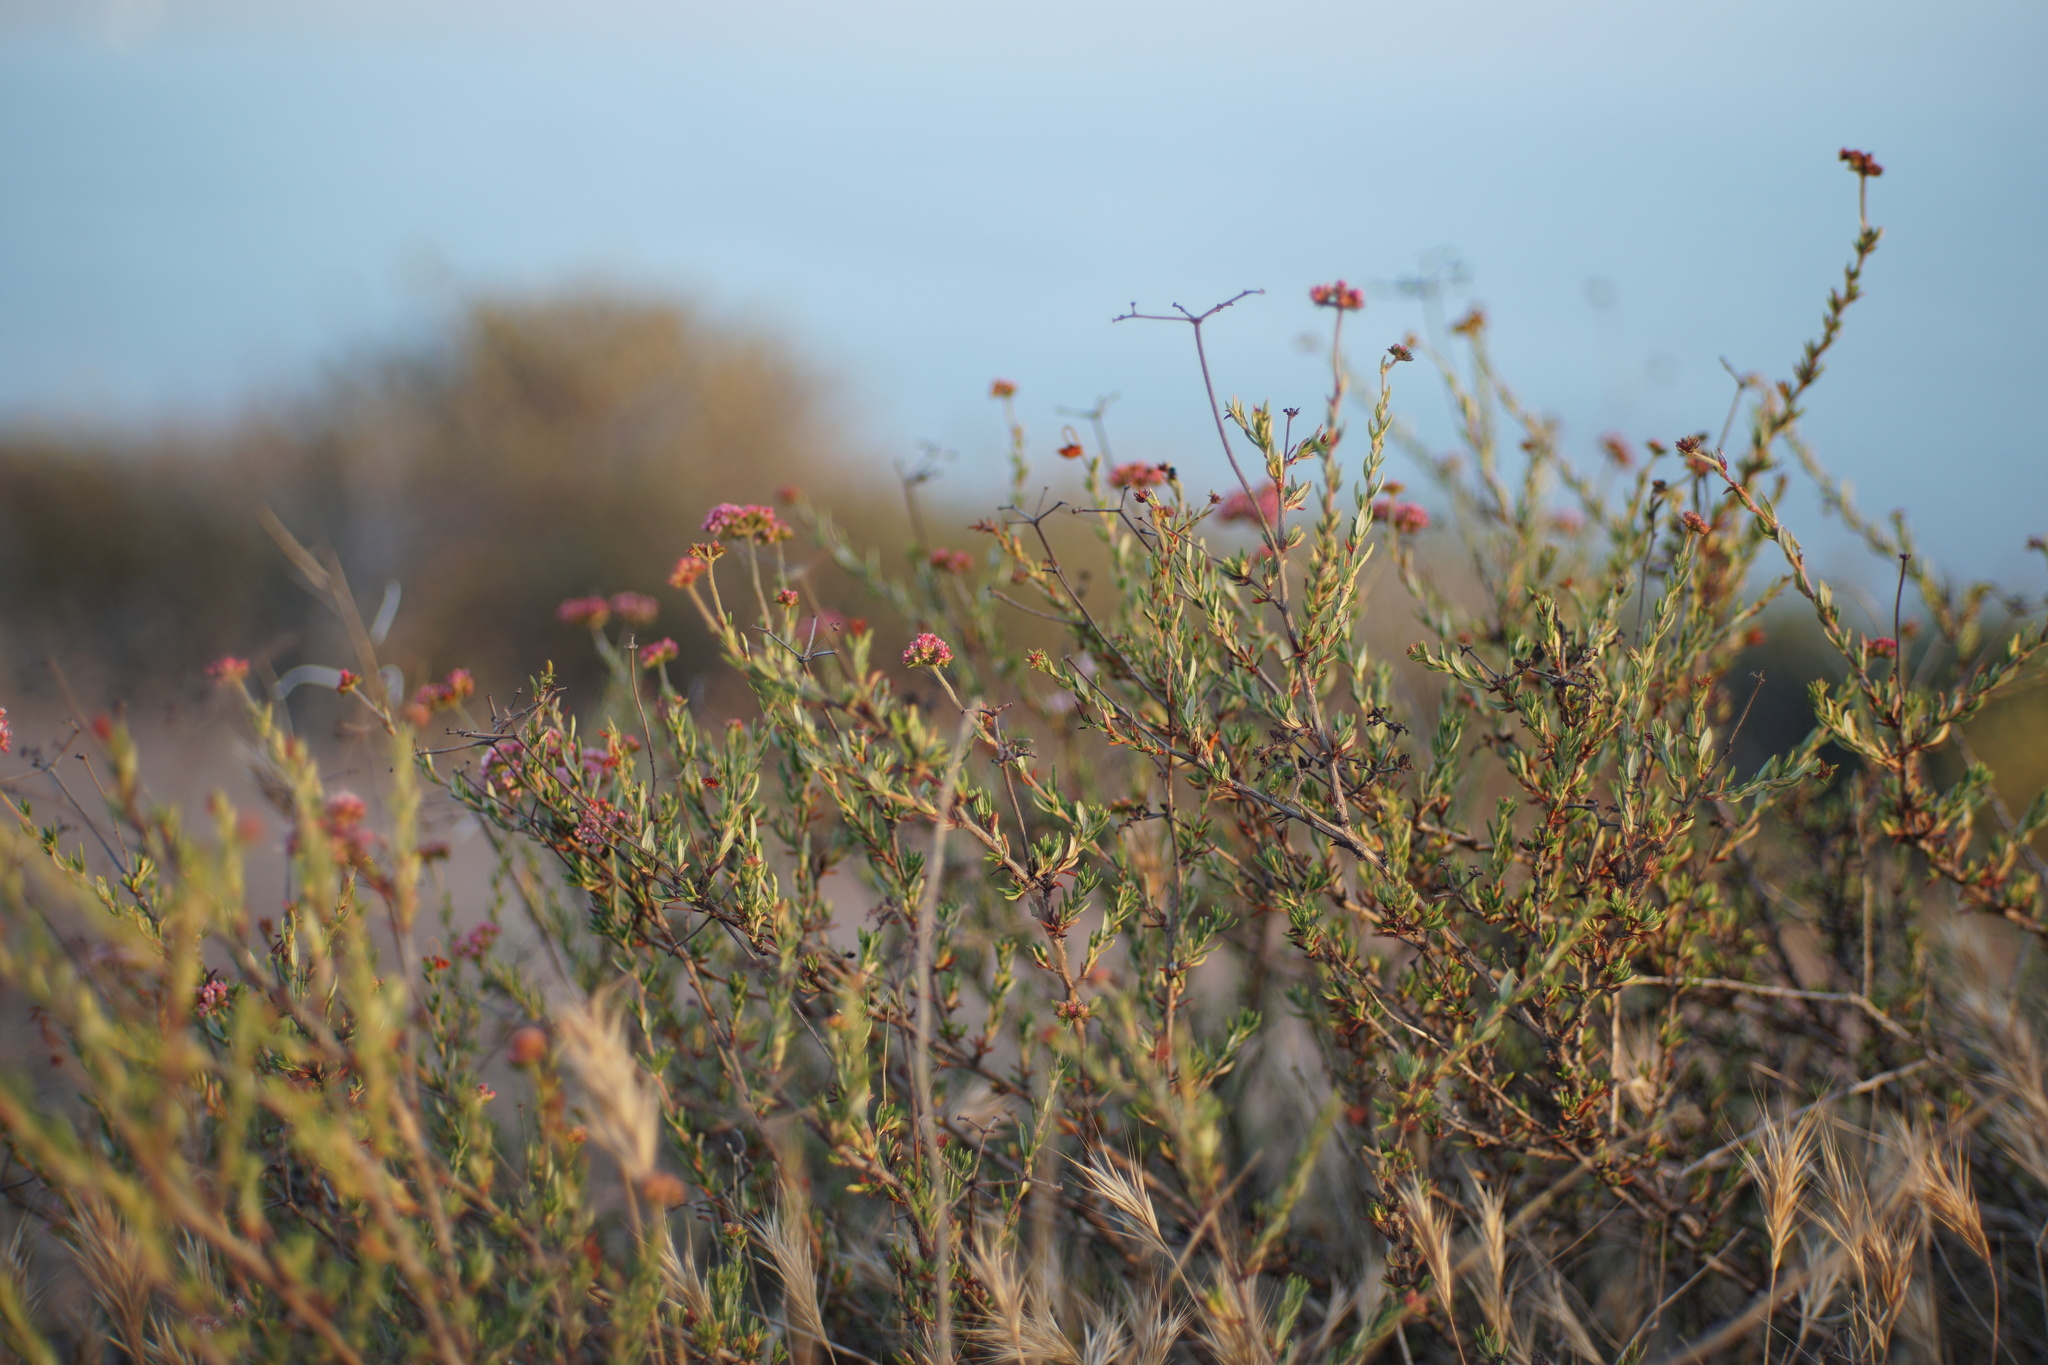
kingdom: Plantae
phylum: Tracheophyta
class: Magnoliopsida
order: Caryophyllales
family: Polygonaceae
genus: Eriogonum
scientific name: Eriogonum fasciculatum
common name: California wild buckwheat
